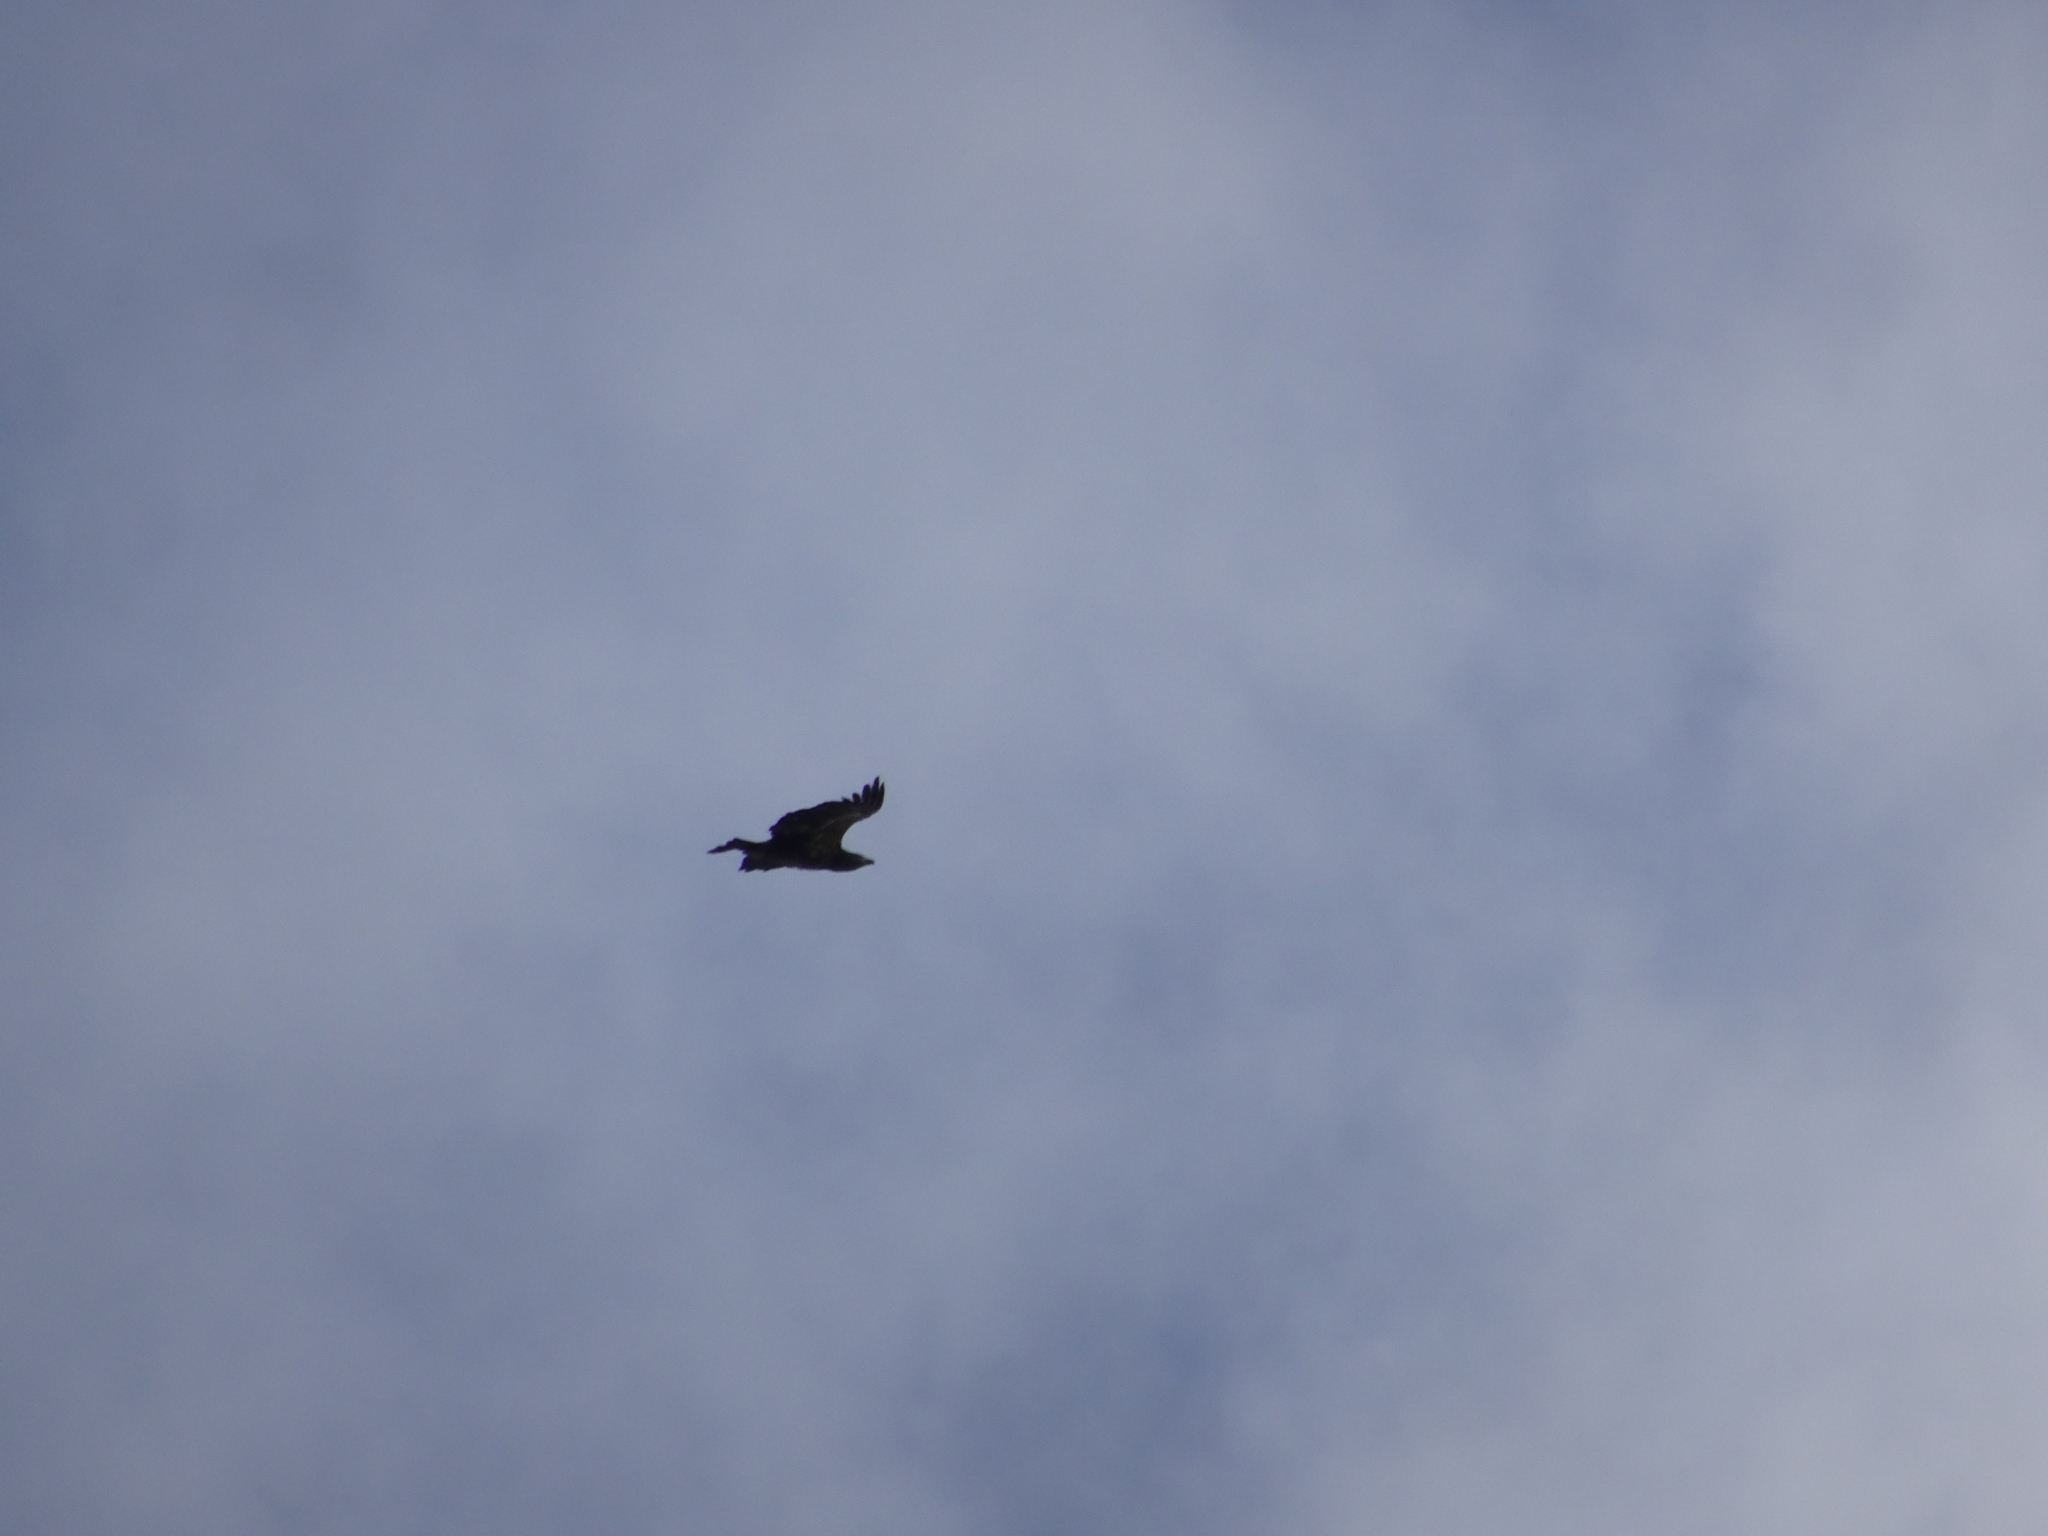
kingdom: Animalia
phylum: Chordata
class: Aves
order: Accipitriformes
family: Accipitridae
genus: Haliaeetus
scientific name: Haliaeetus leucocephalus
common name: Bald eagle
